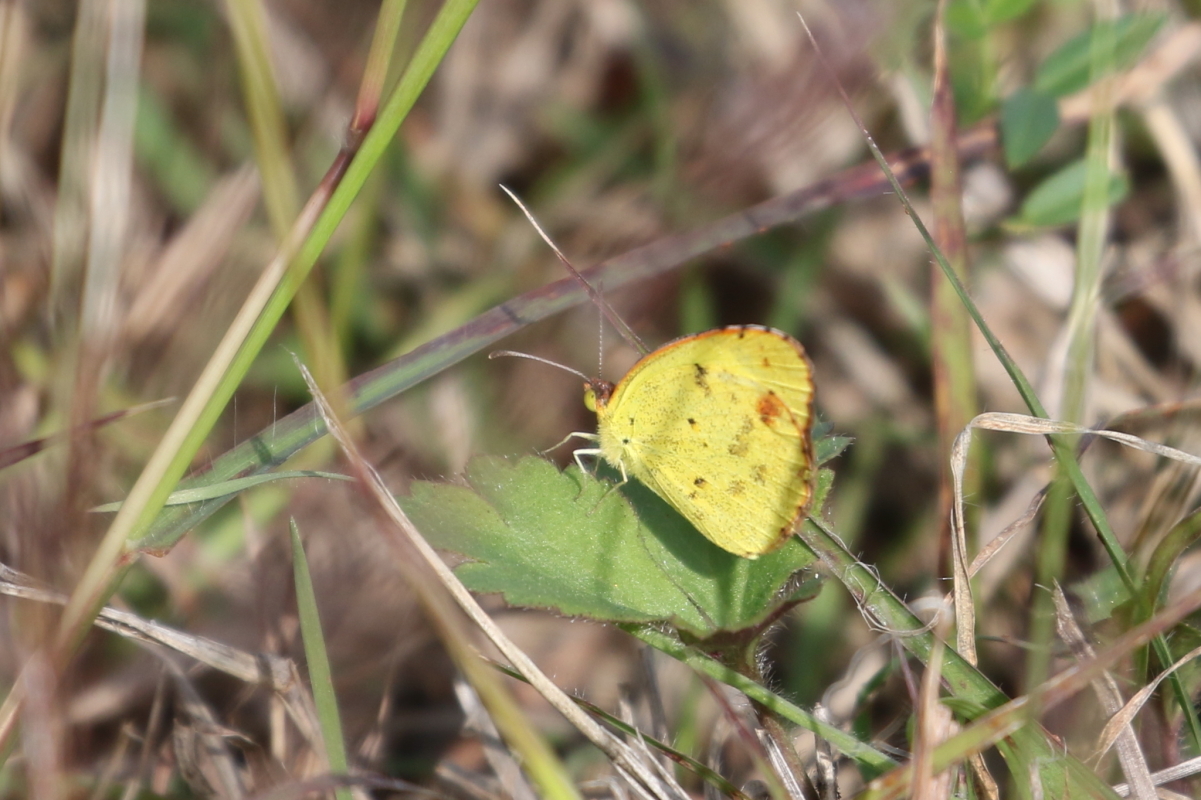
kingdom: Animalia
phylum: Arthropoda
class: Insecta
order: Lepidoptera
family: Pieridae
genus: Pyrisitia
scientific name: Pyrisitia lisa
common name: Little yellow
